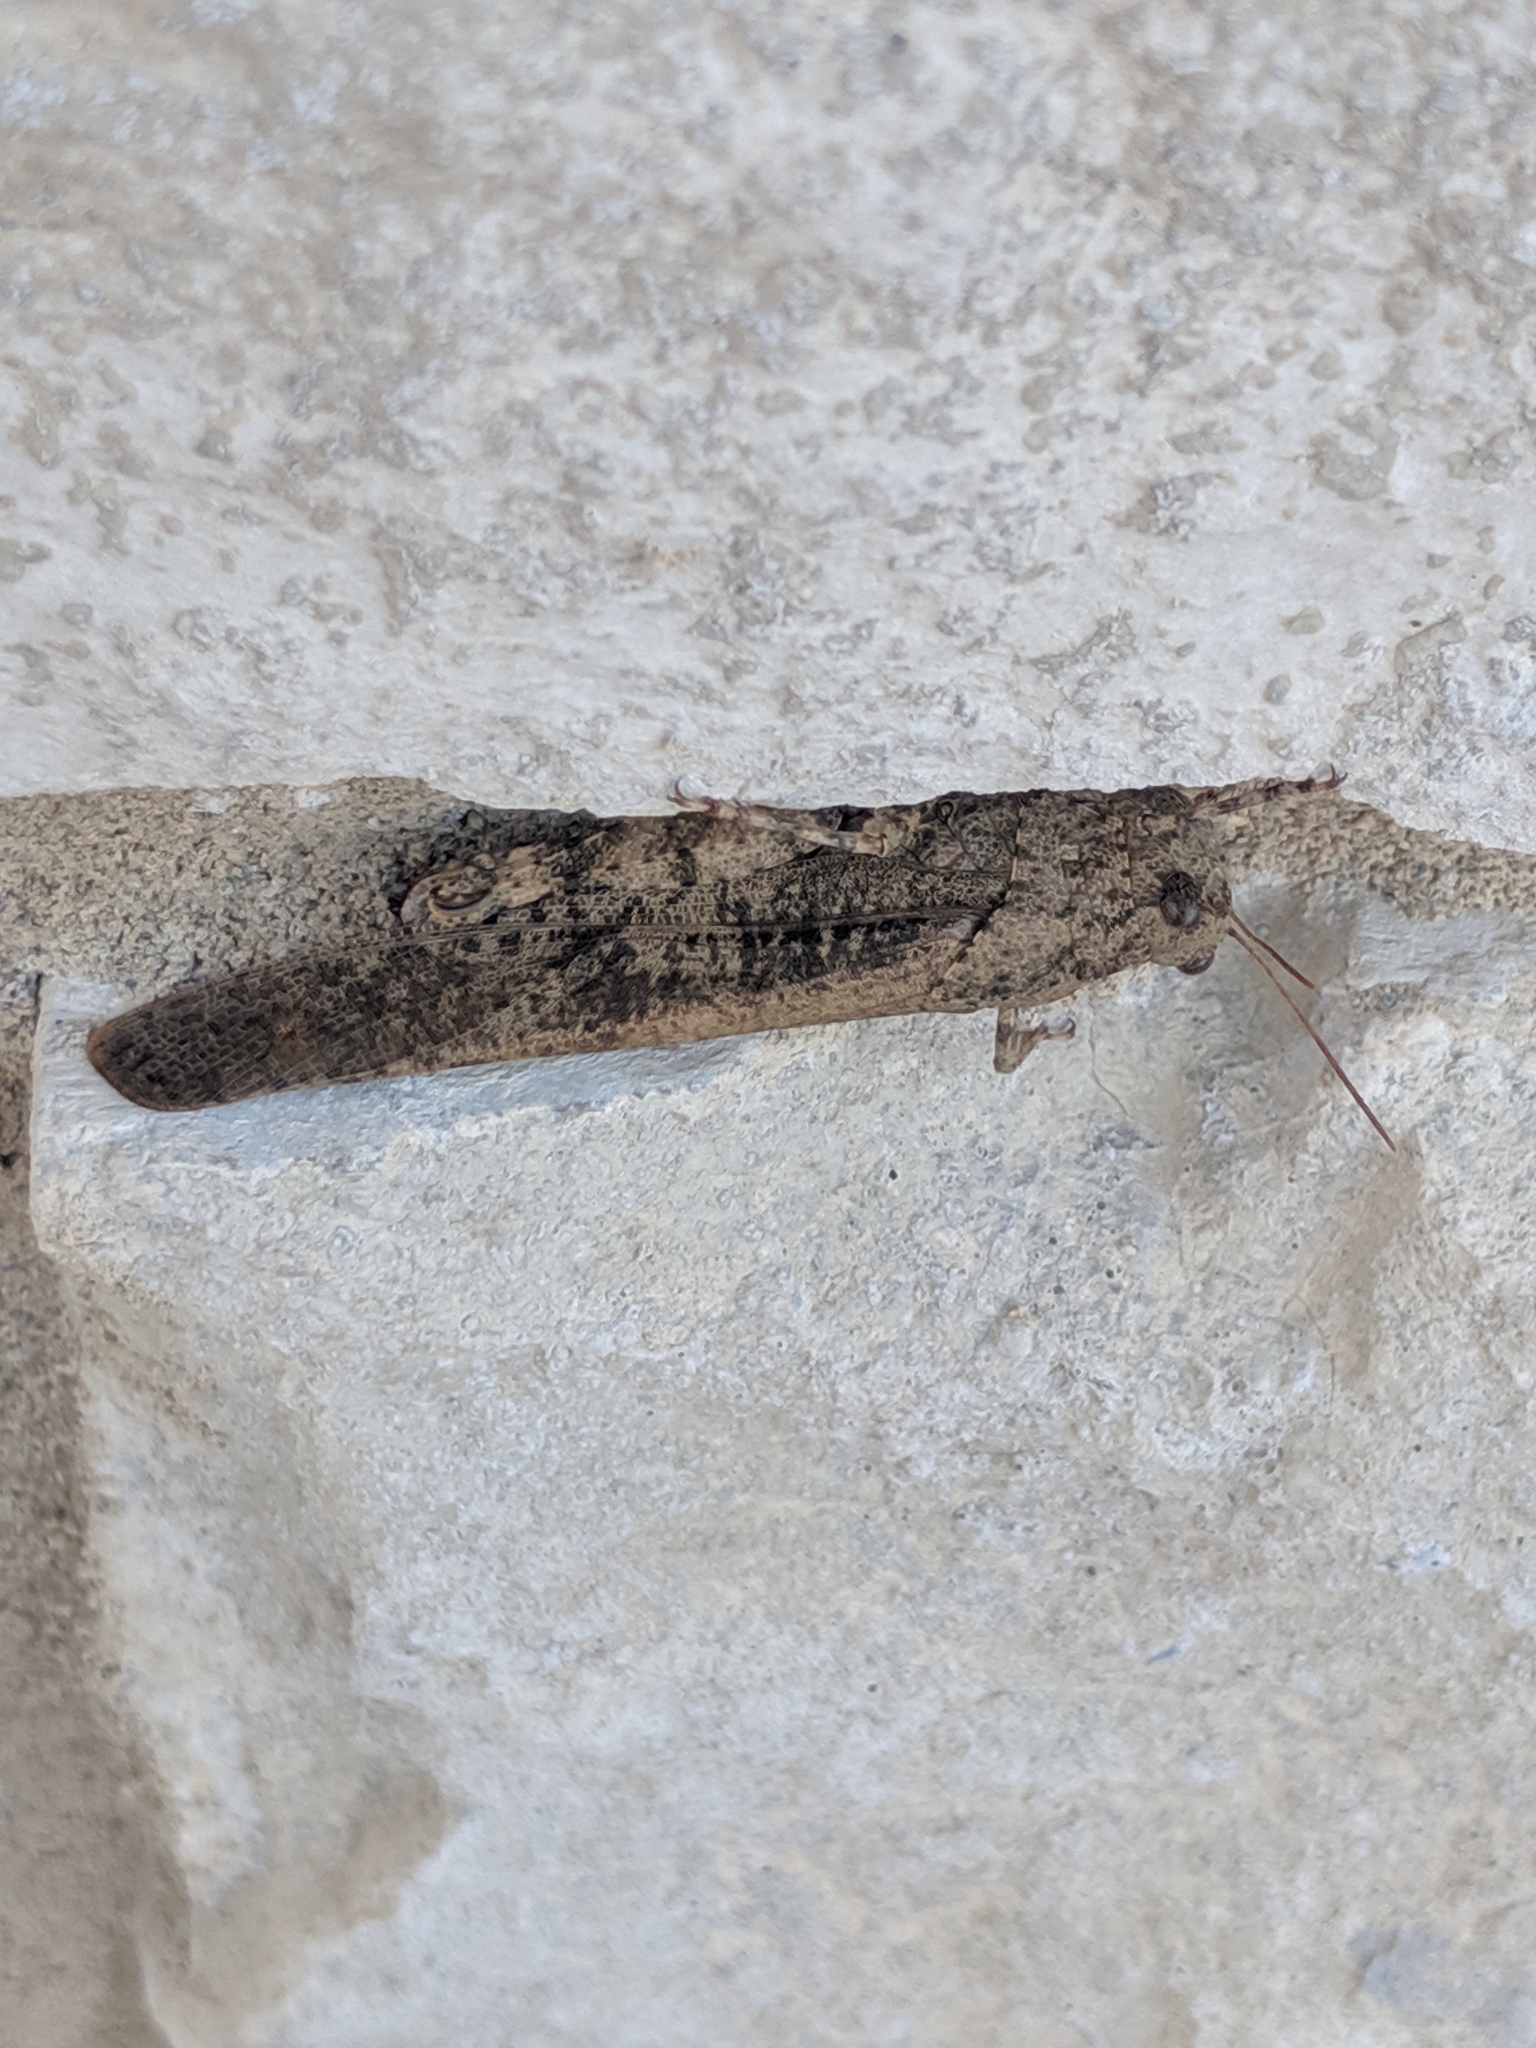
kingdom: Animalia
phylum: Arthropoda
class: Insecta
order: Orthoptera
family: Acrididae
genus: Dissosteira
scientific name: Dissosteira carolina
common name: Carolina grasshopper
